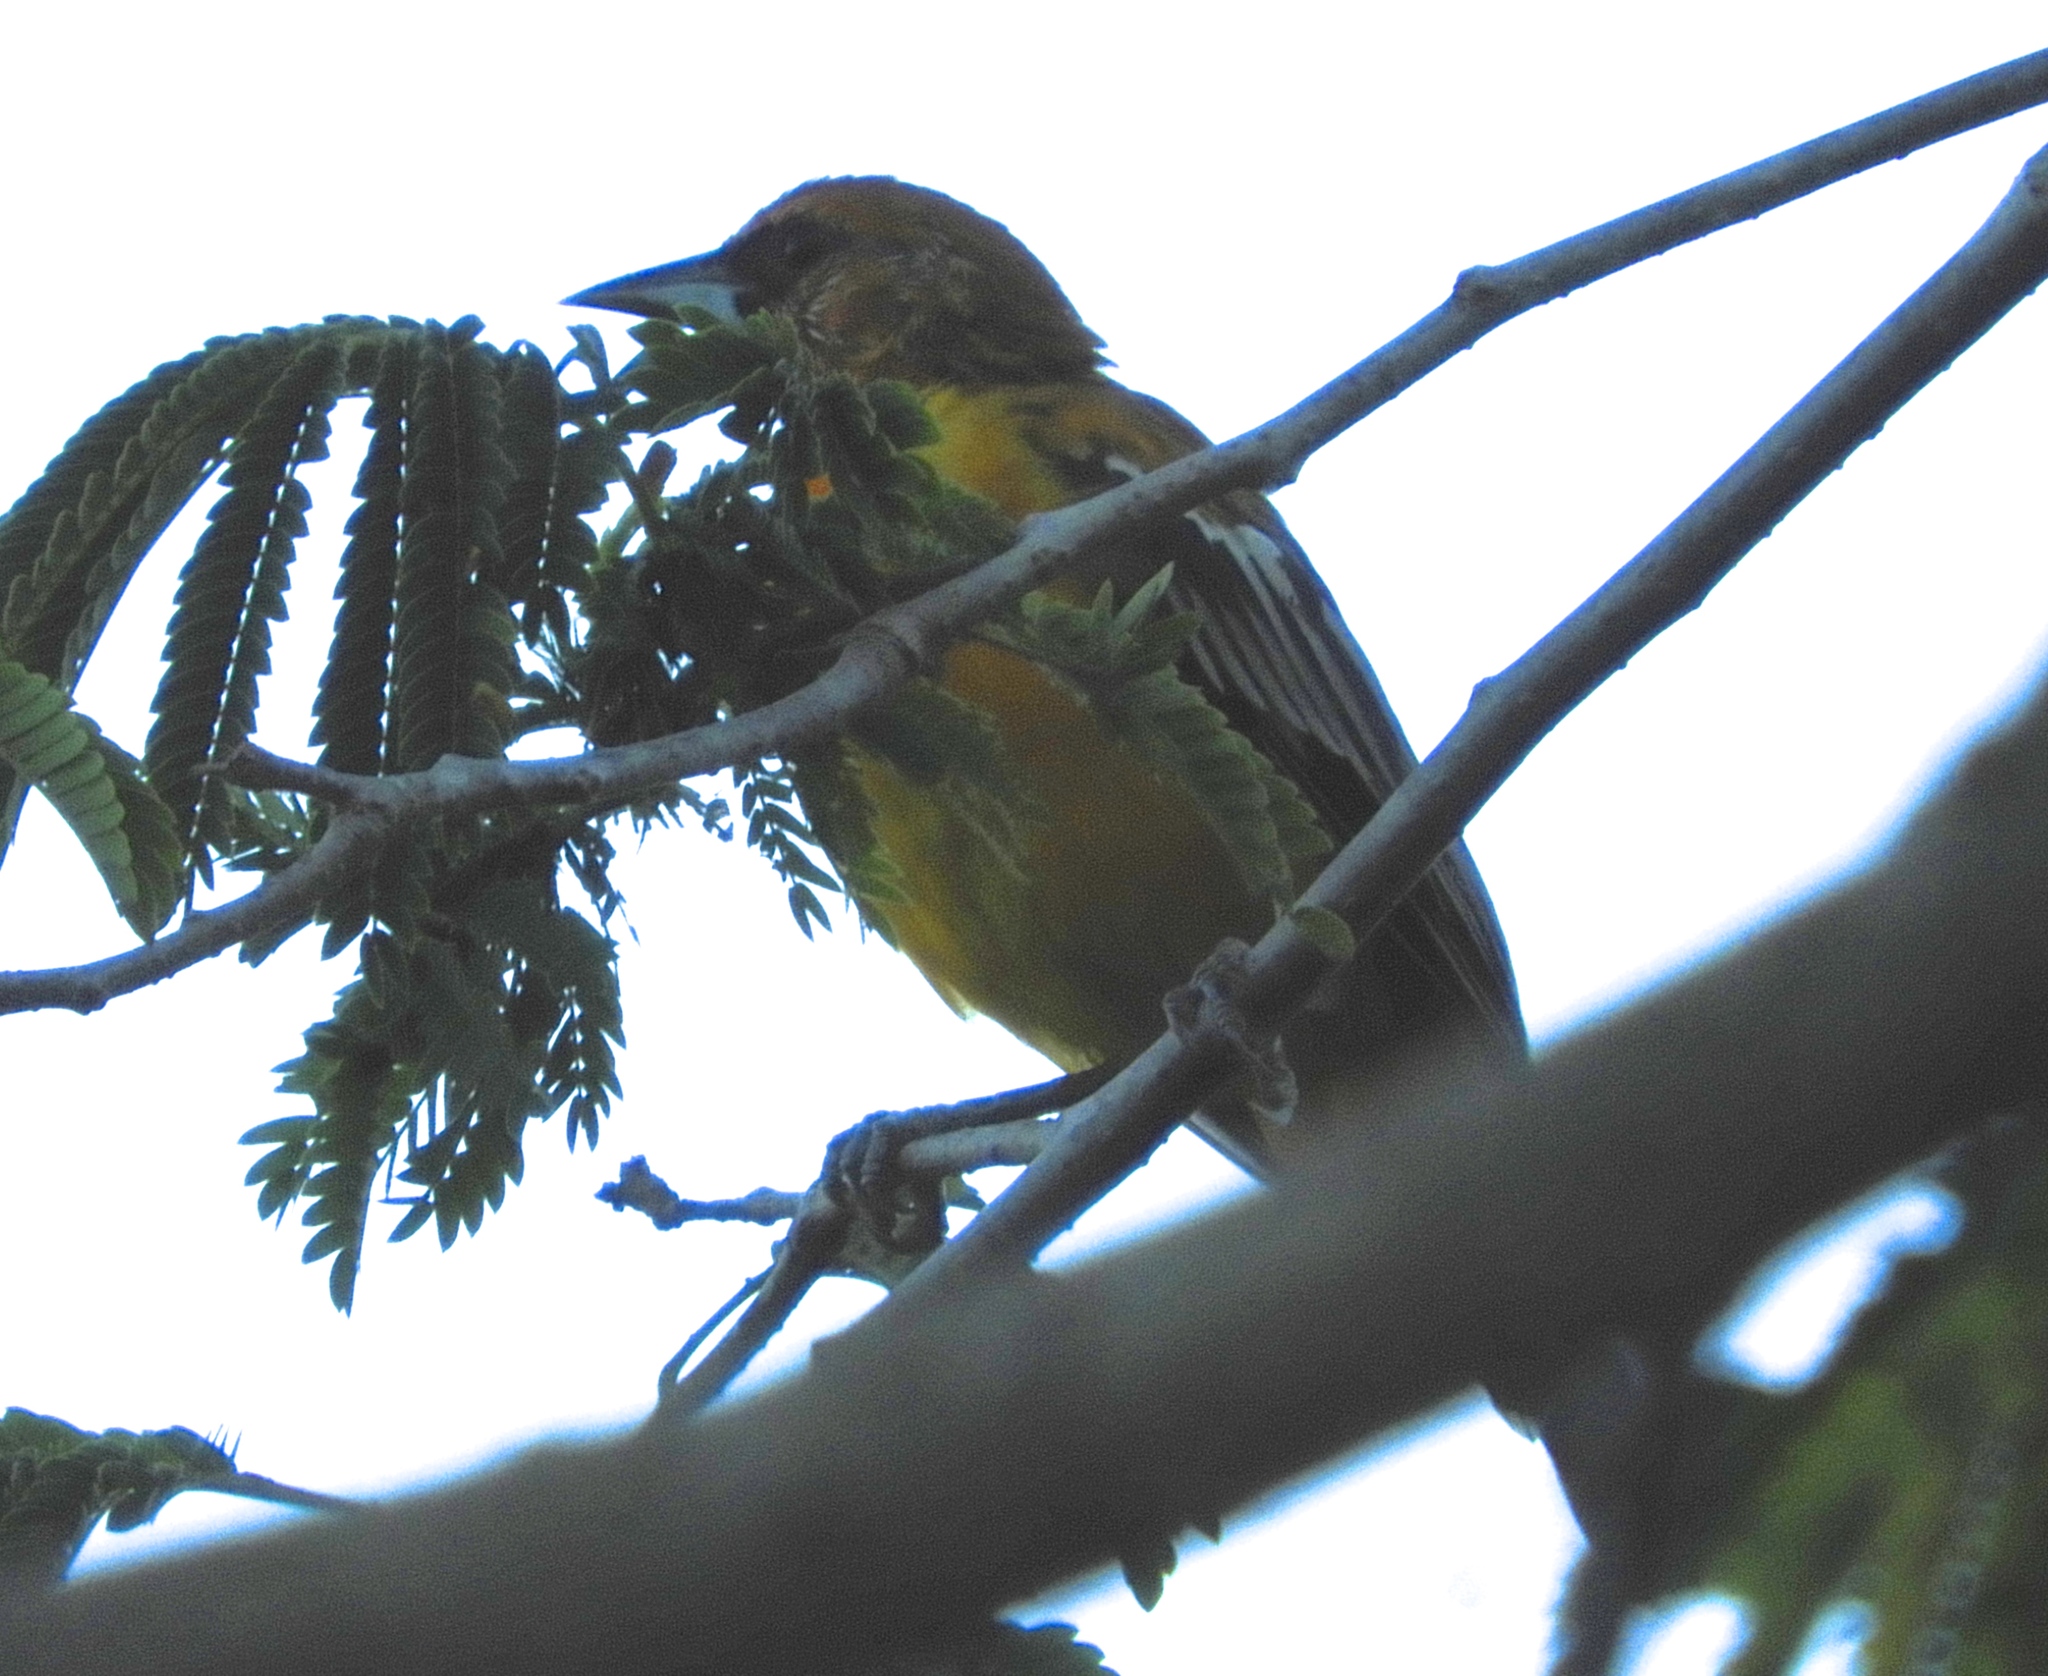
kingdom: Animalia
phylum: Chordata
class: Aves
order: Passeriformes
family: Icteridae
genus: Icterus
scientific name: Icterus pustulatus
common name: Streak-backed oriole
